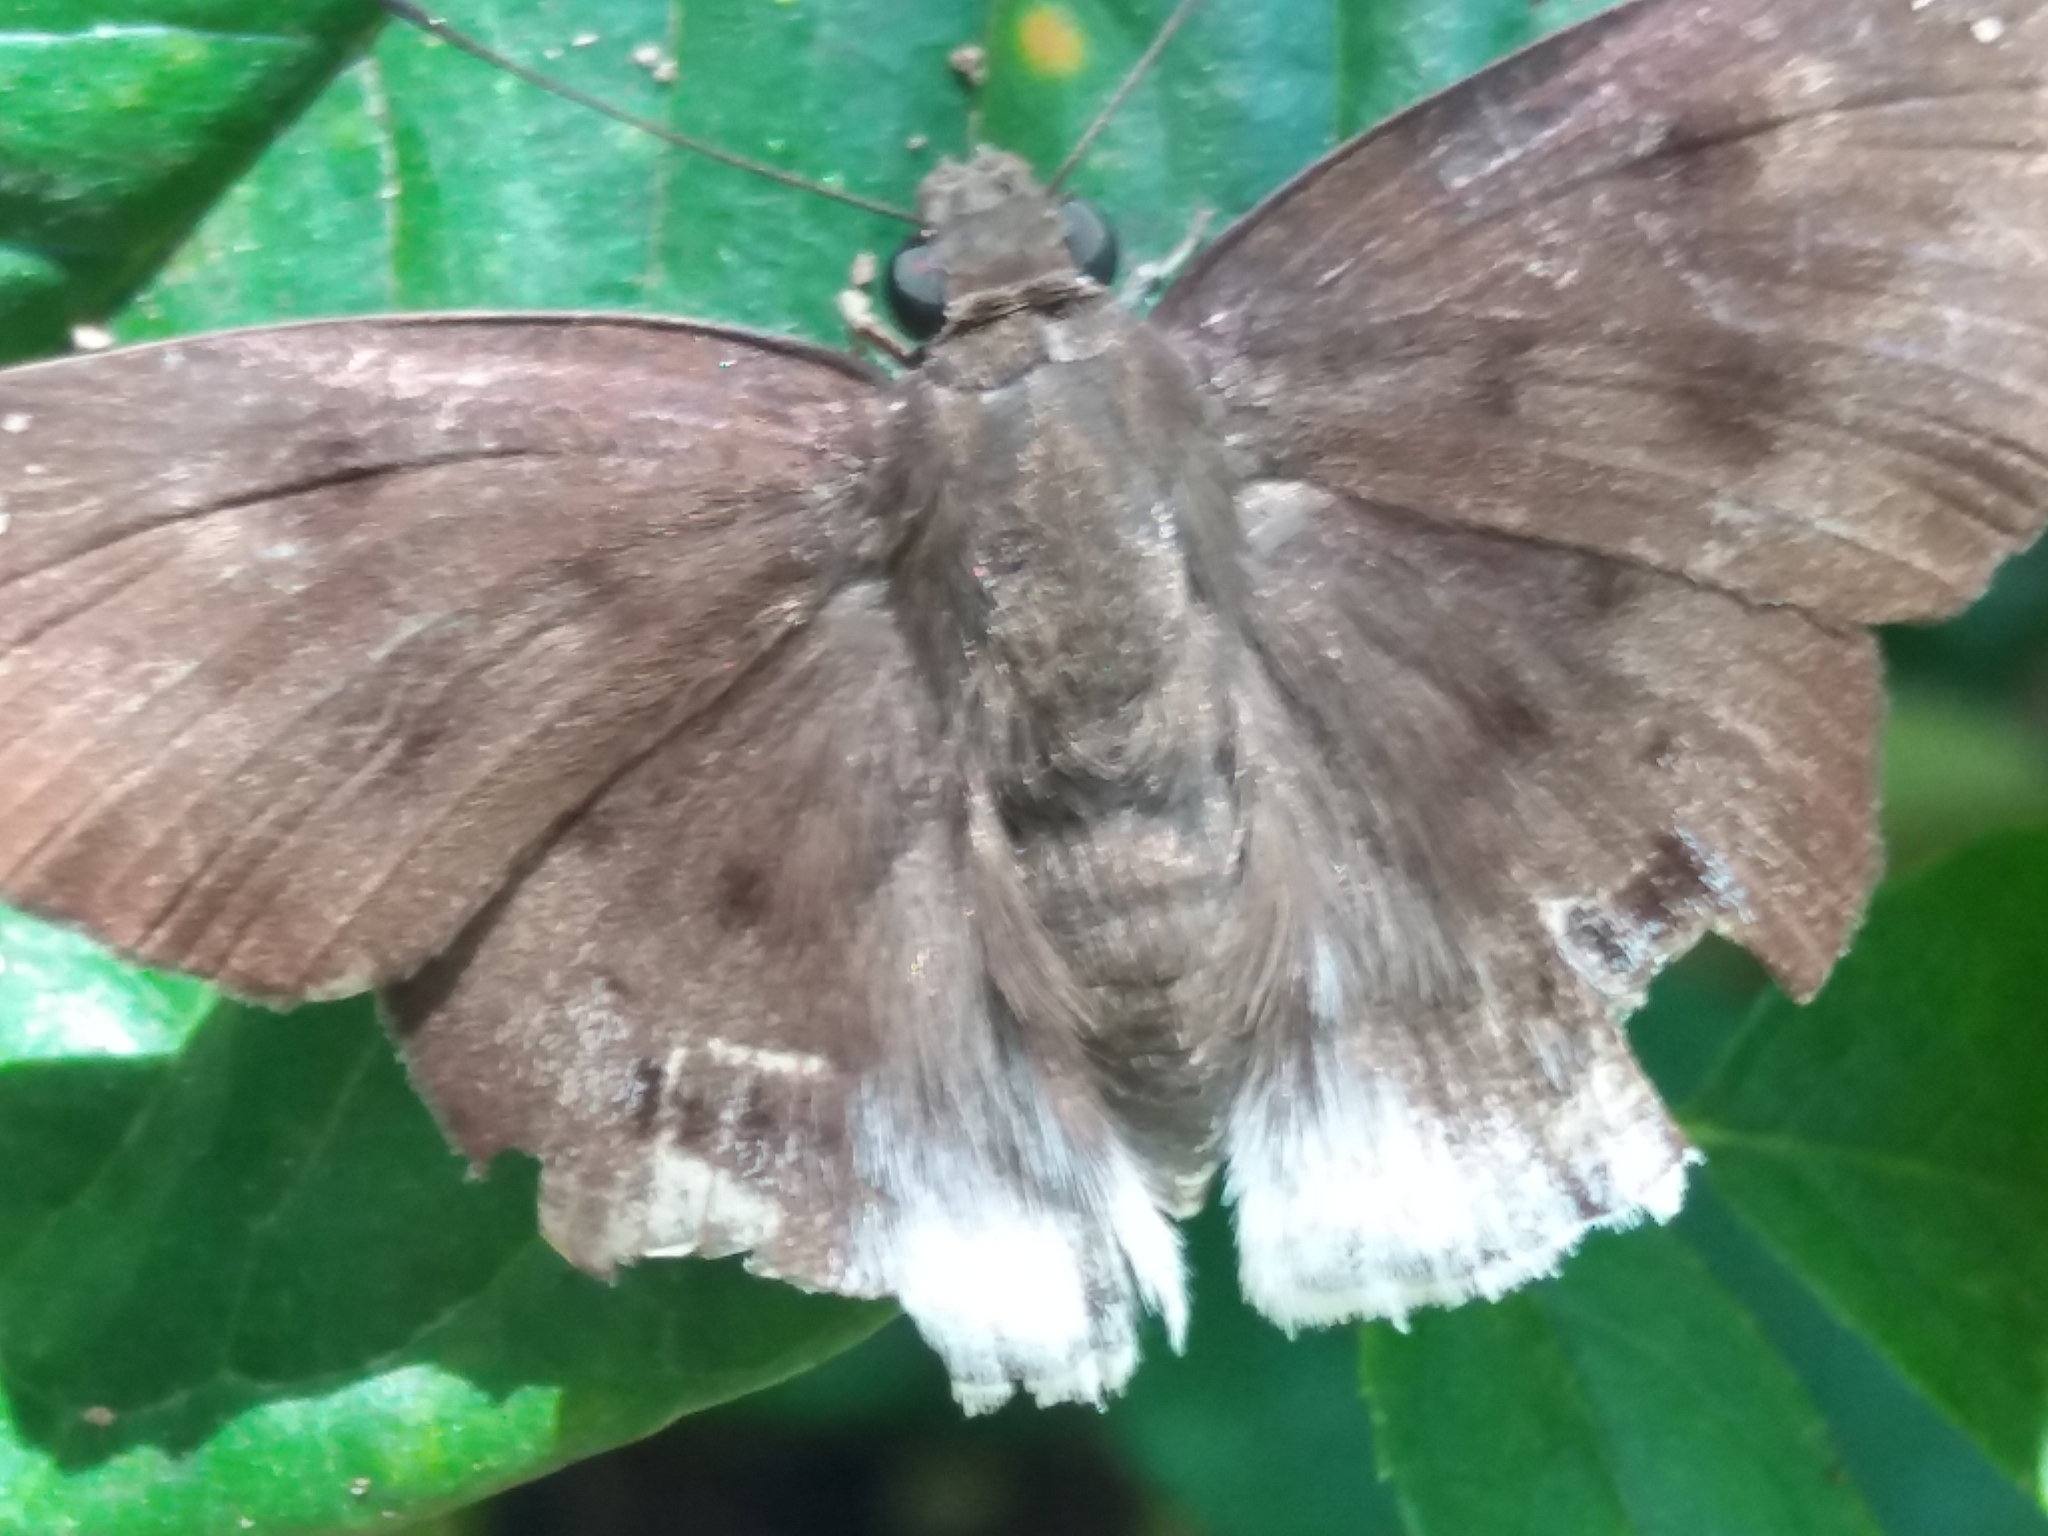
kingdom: Animalia
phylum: Arthropoda
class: Insecta
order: Lepidoptera
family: Hesperiidae
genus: Tagiades
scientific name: Tagiades gana
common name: Suffused snow flat
